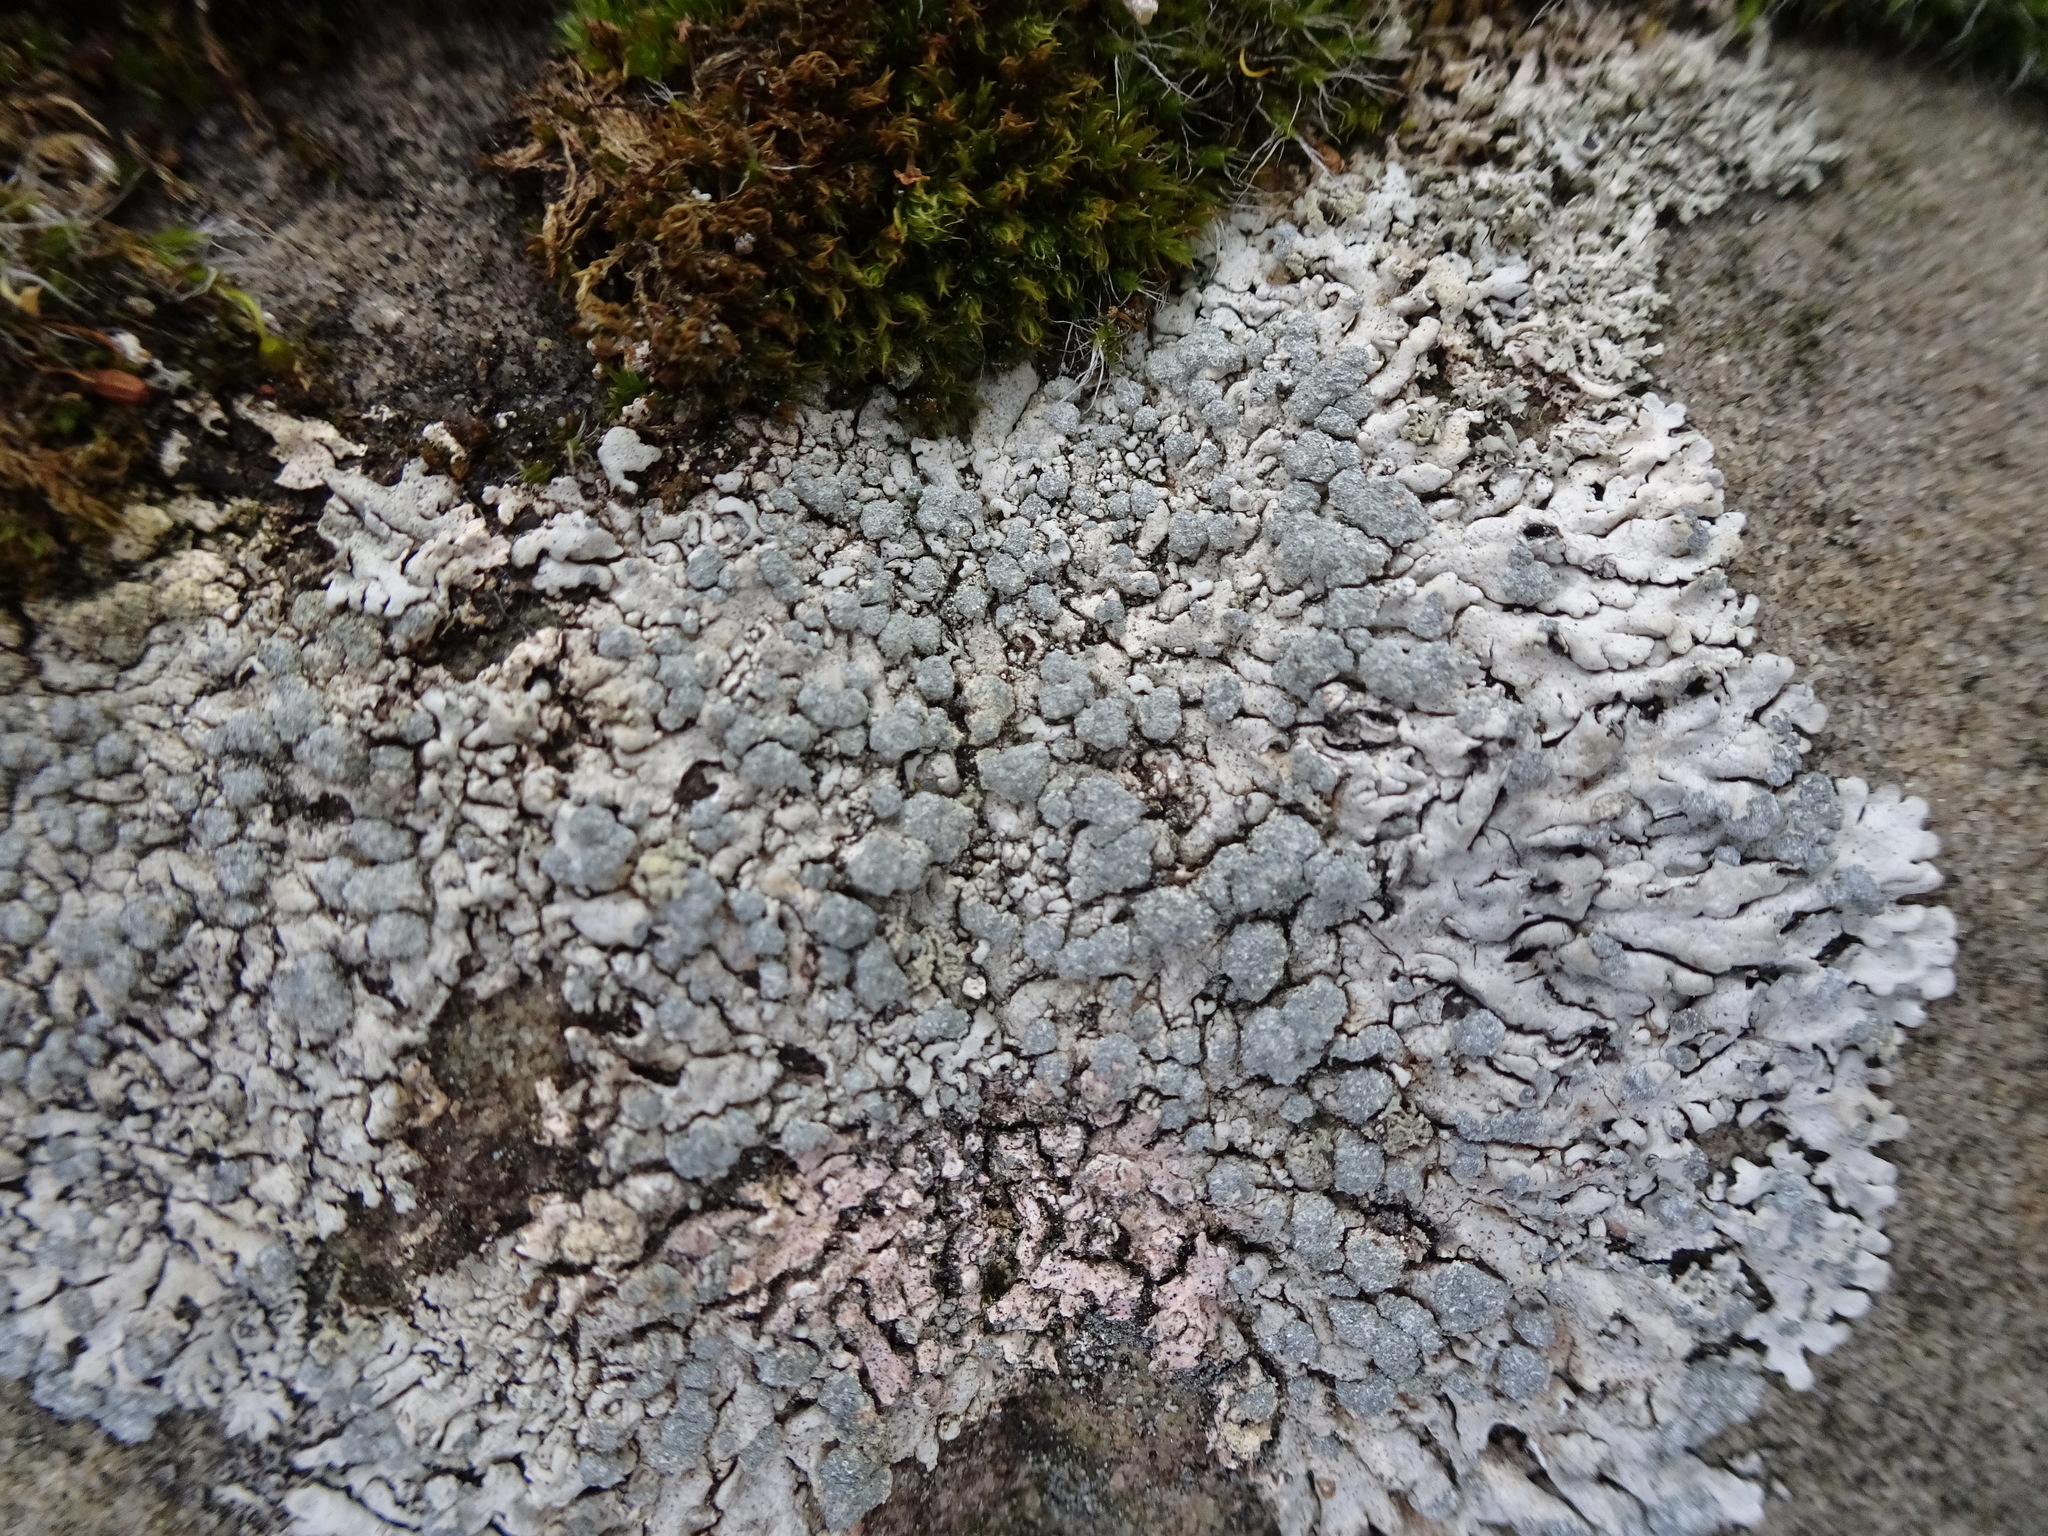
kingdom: Fungi
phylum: Ascomycota
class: Lecanoromycetes
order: Caliciales
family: Physciaceae
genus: Physcia
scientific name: Physcia caesia
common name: Blue-gray rosette lichen
